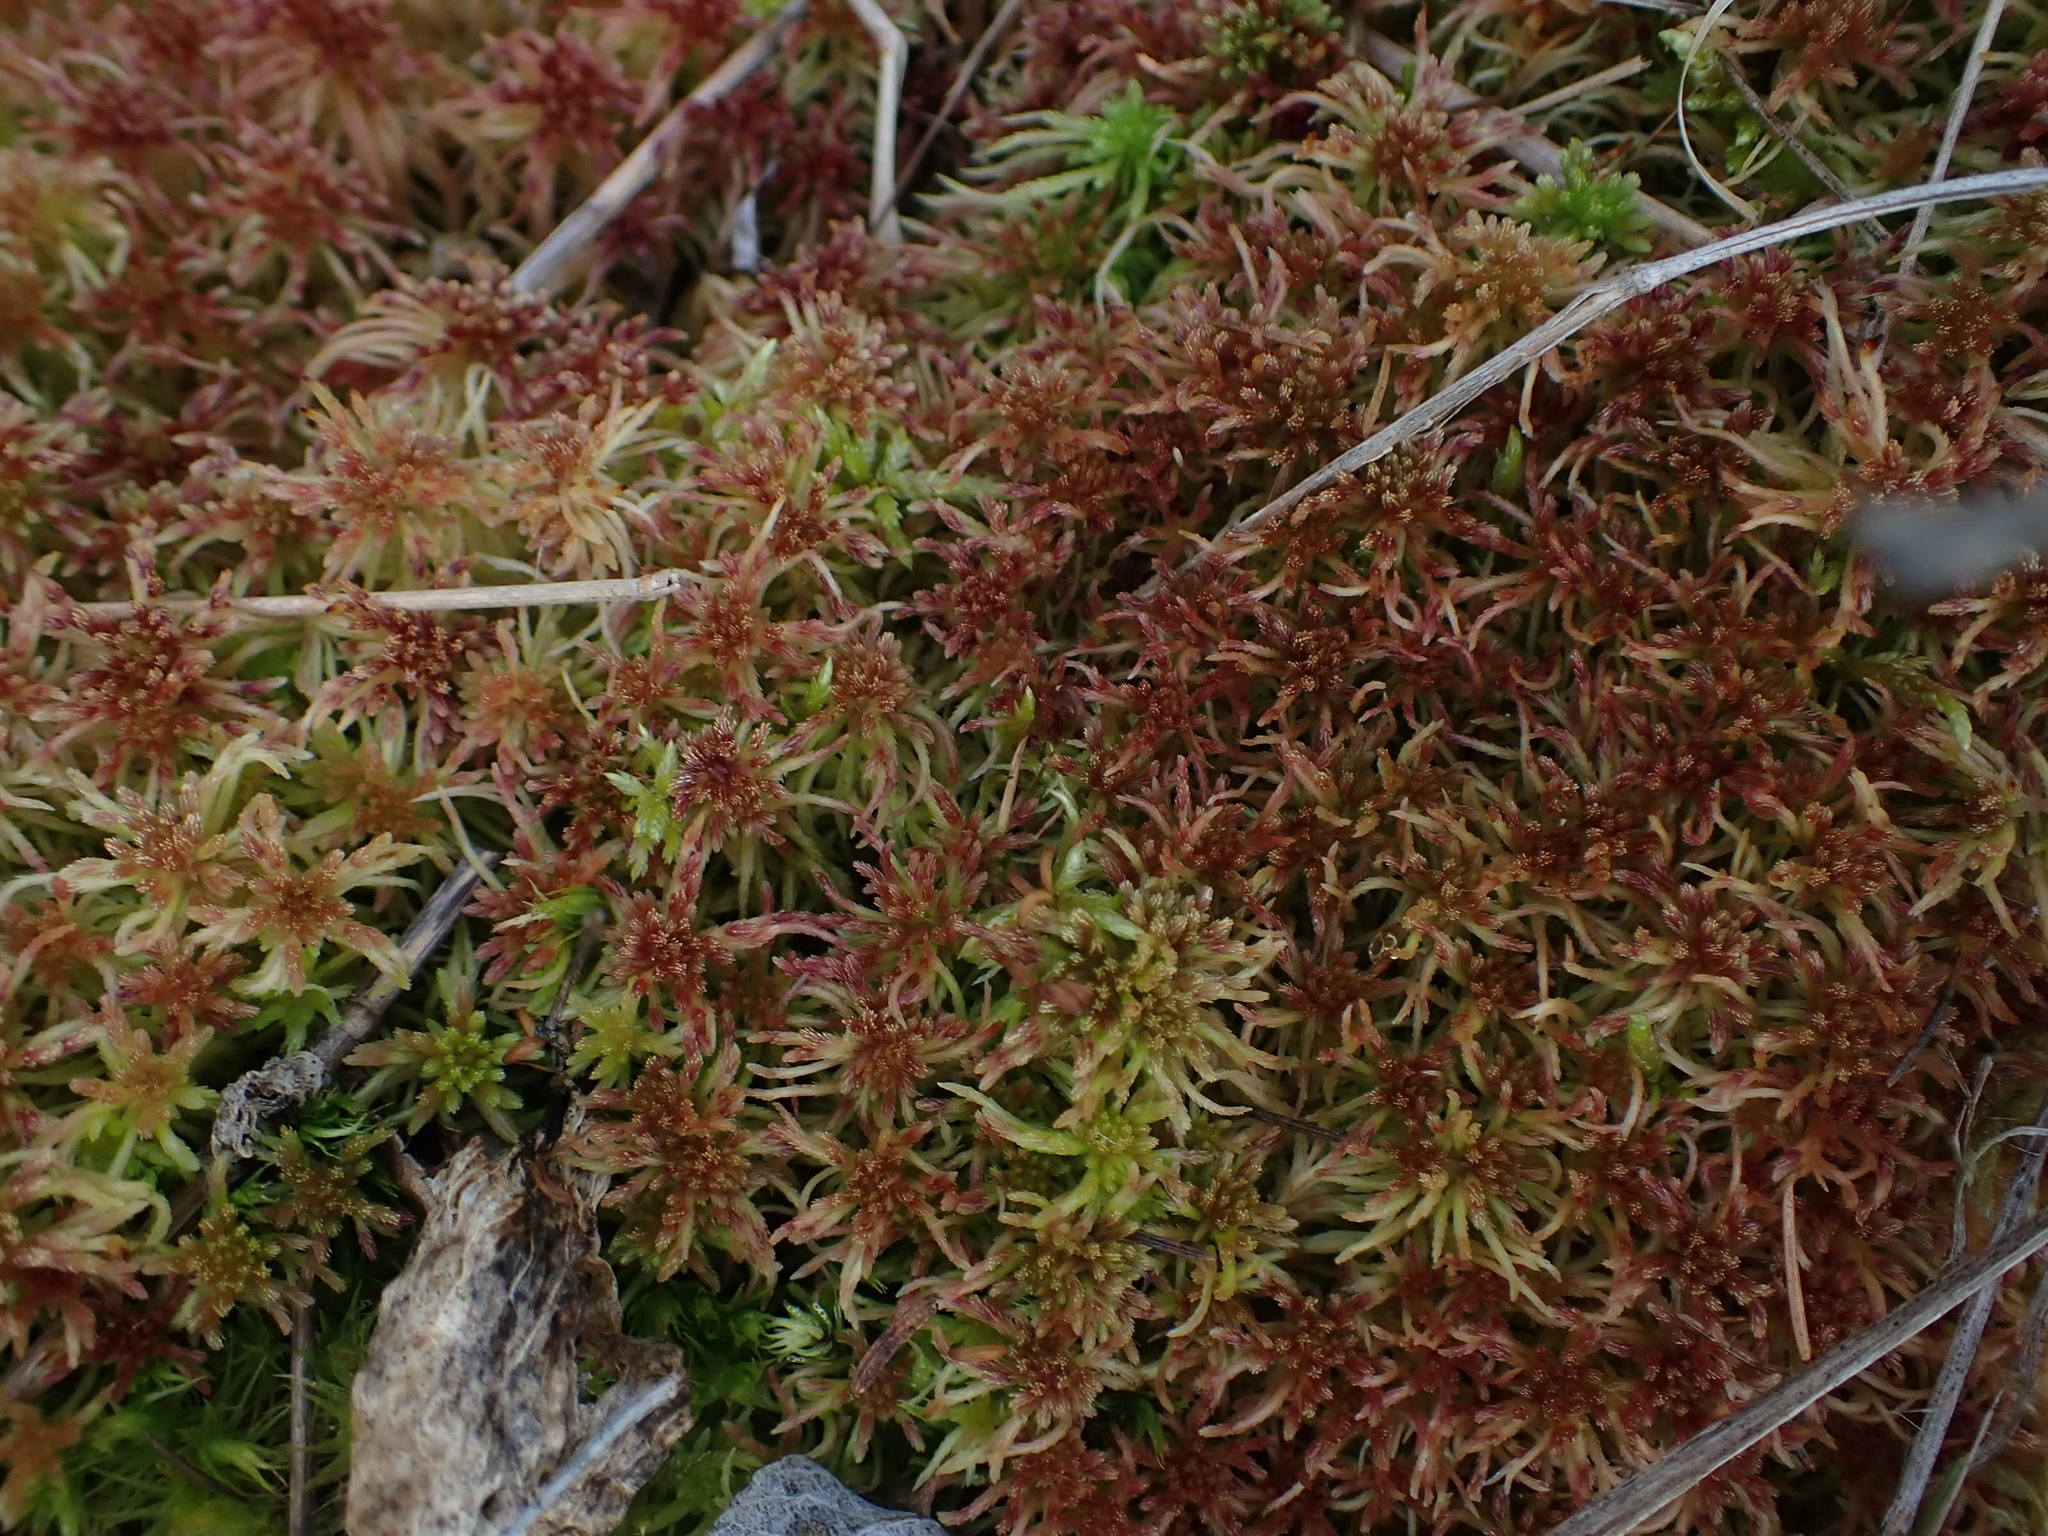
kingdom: Plantae
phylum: Bryophyta
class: Sphagnopsida
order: Sphagnales
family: Sphagnaceae
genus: Sphagnum
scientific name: Sphagnum russowii
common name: Russow's peat moss
